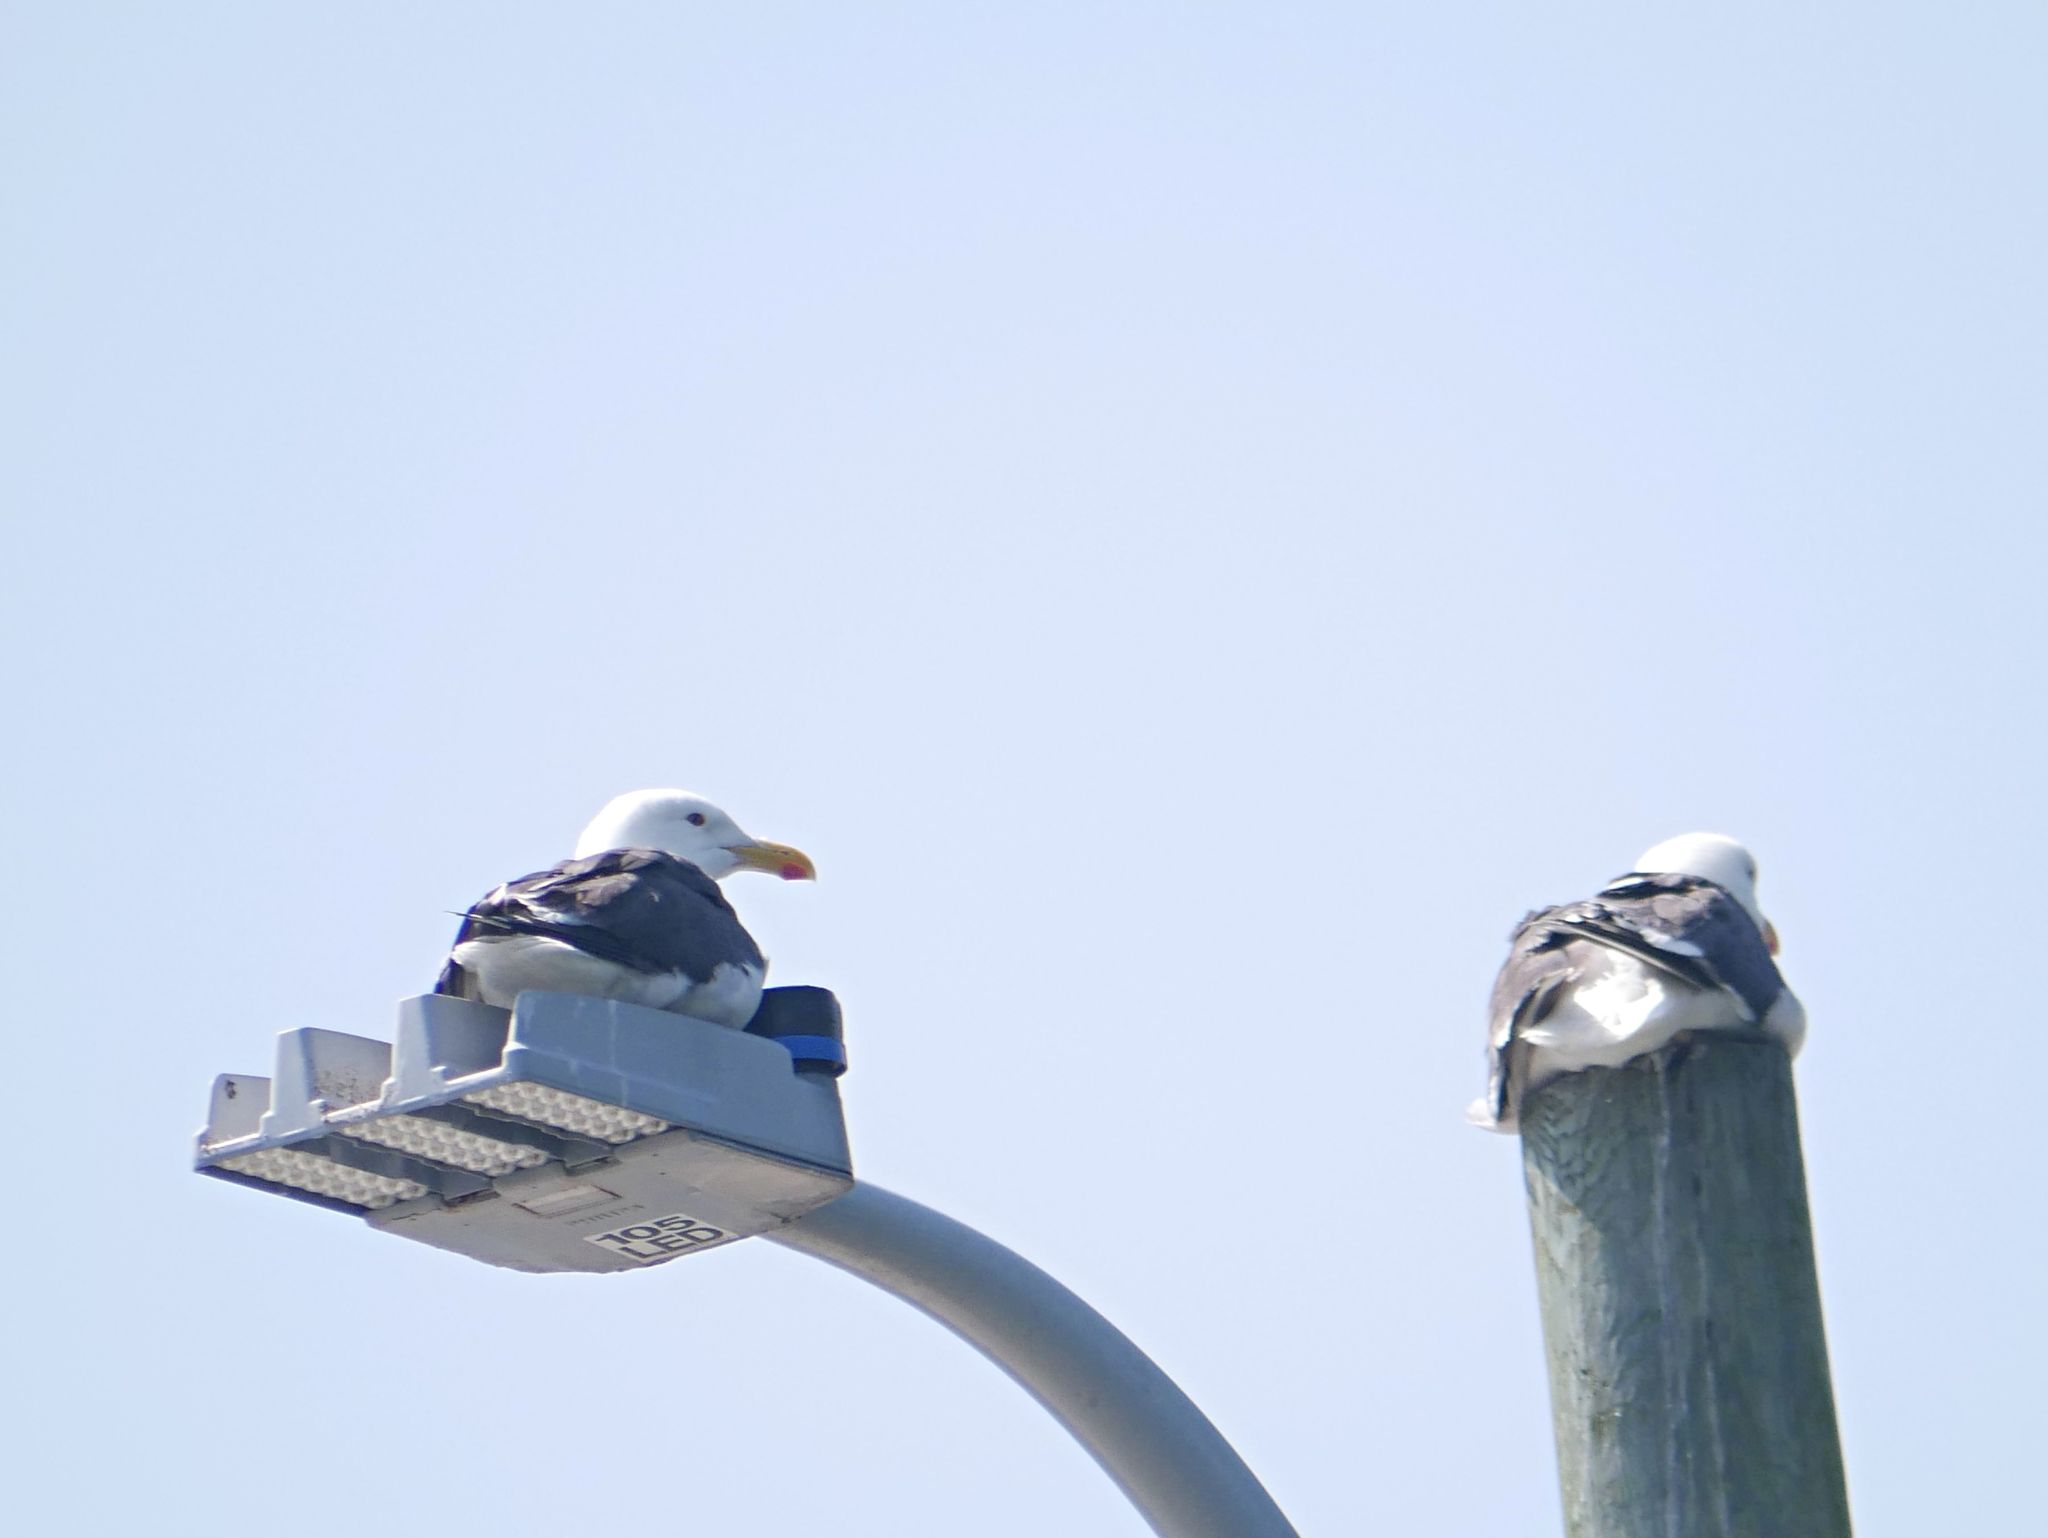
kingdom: Animalia
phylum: Chordata
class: Aves
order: Charadriiformes
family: Laridae
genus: Larus
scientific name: Larus marinus
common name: Great black-backed gull
